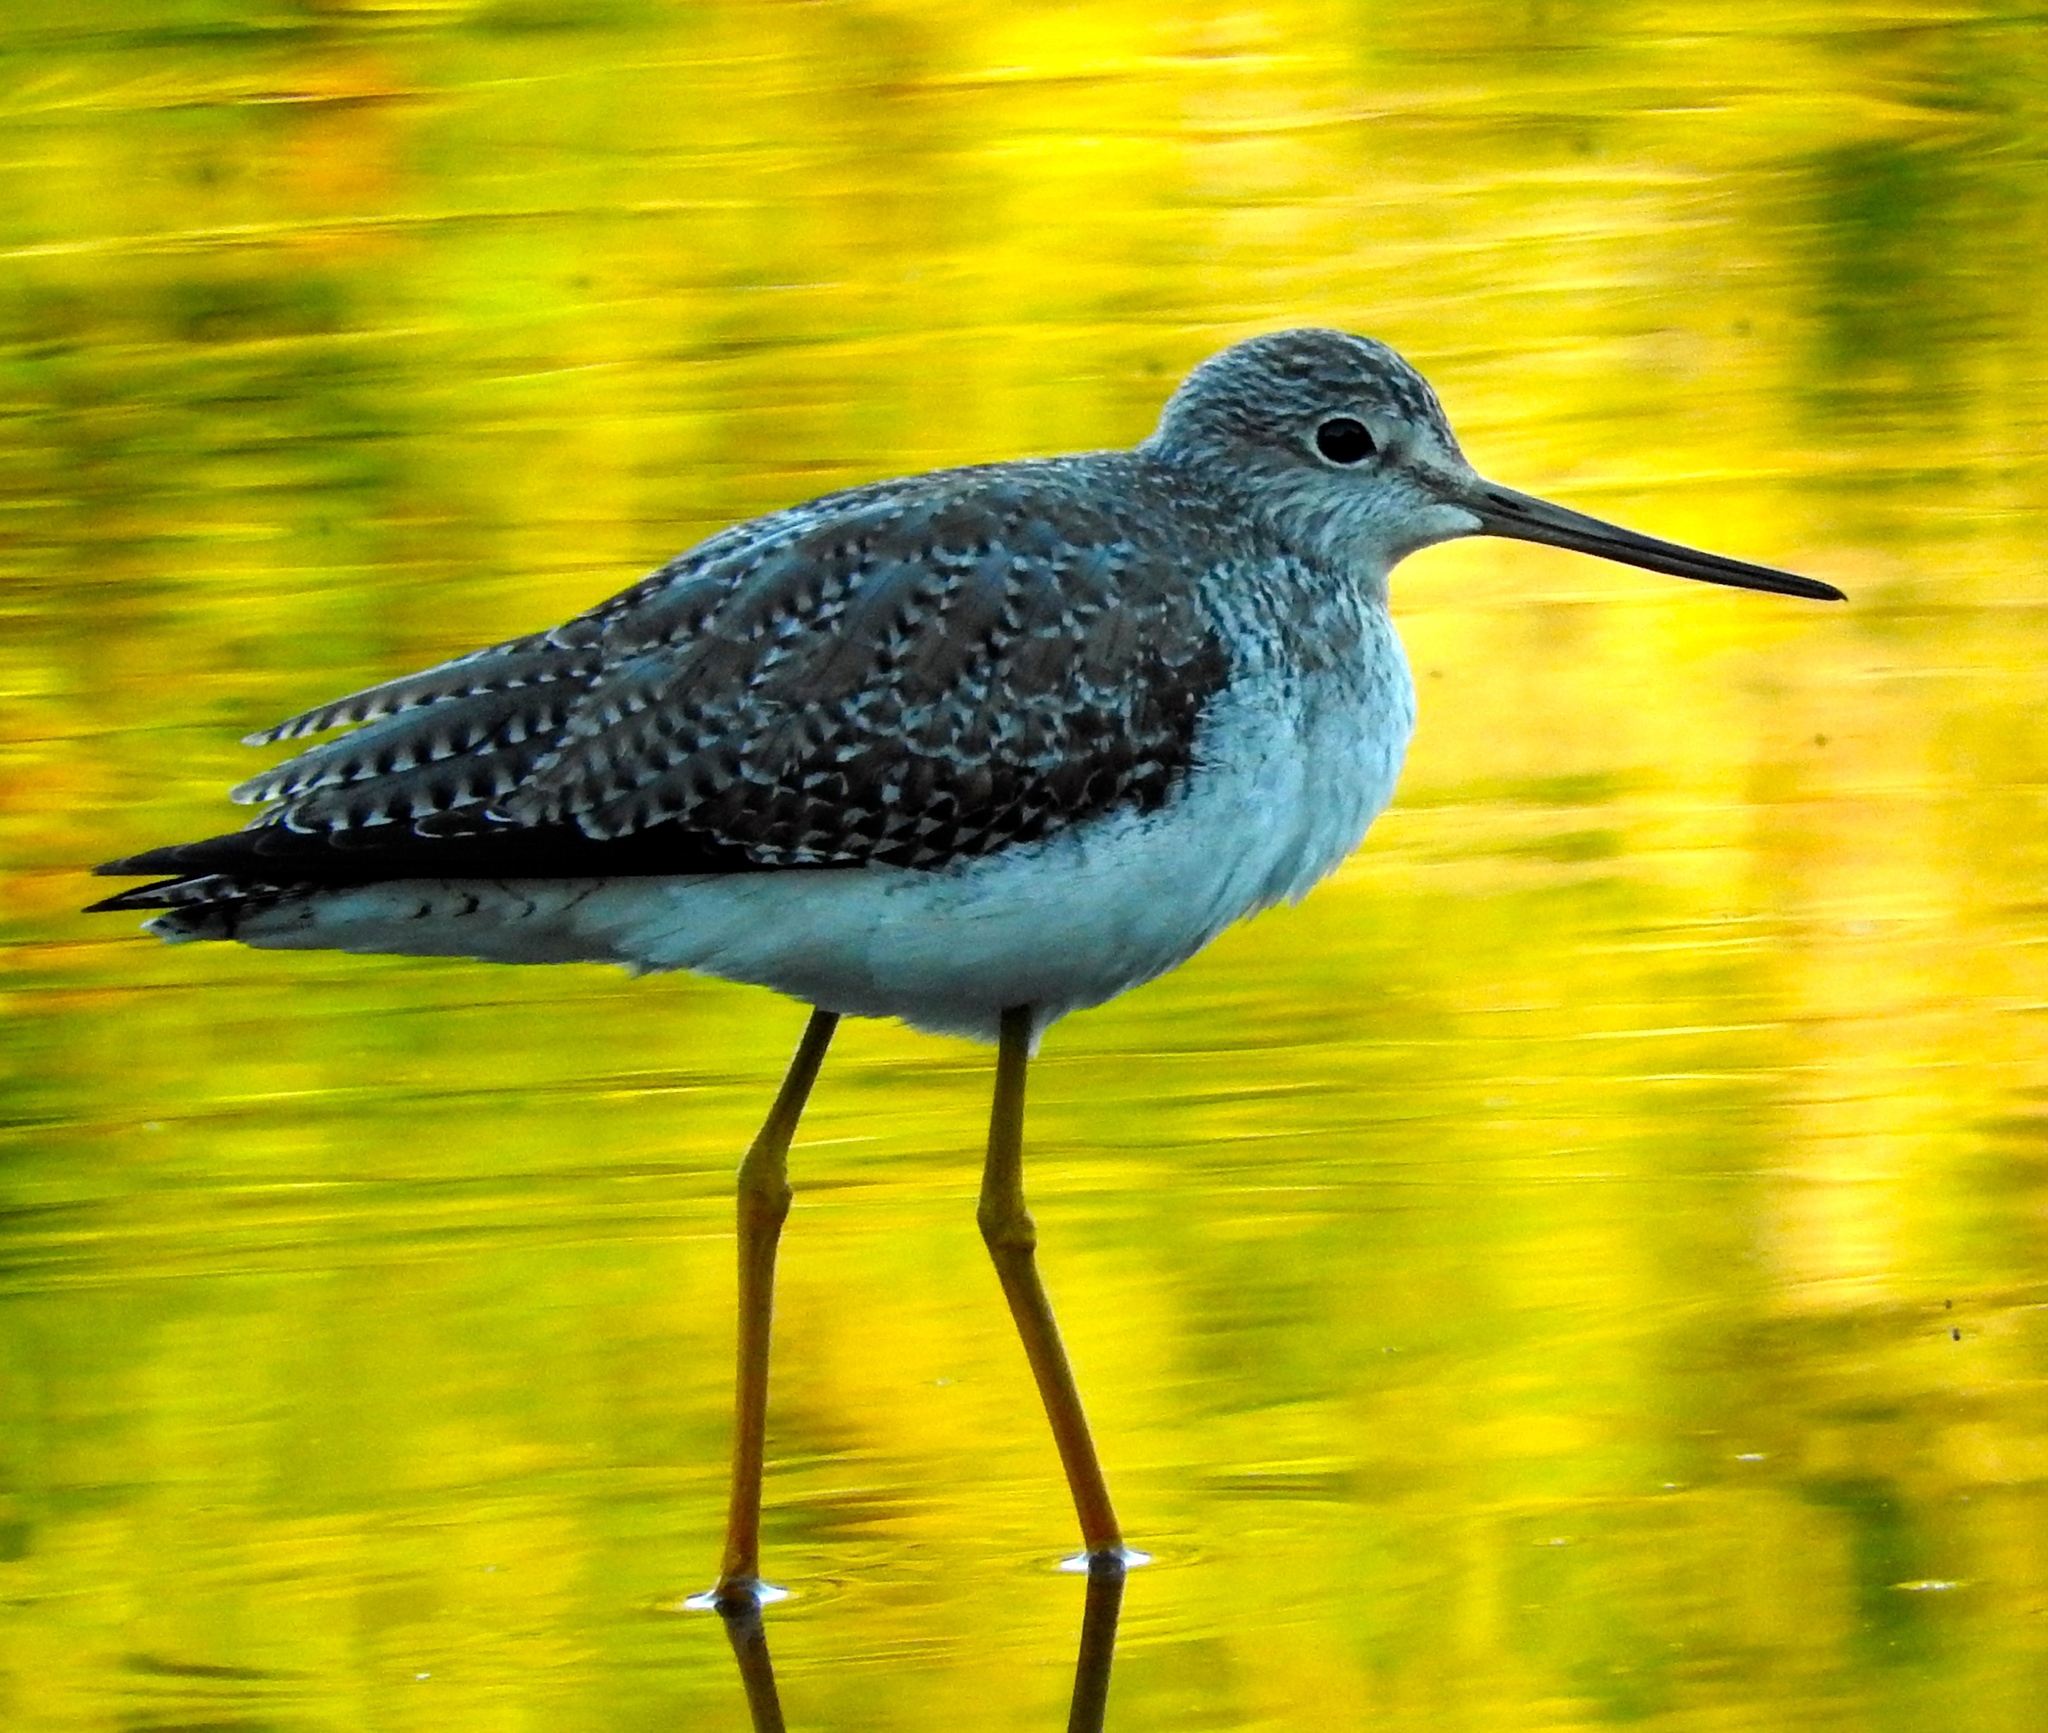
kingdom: Animalia
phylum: Chordata
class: Aves
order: Charadriiformes
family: Scolopacidae
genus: Tringa
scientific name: Tringa melanoleuca
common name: Greater yellowlegs
